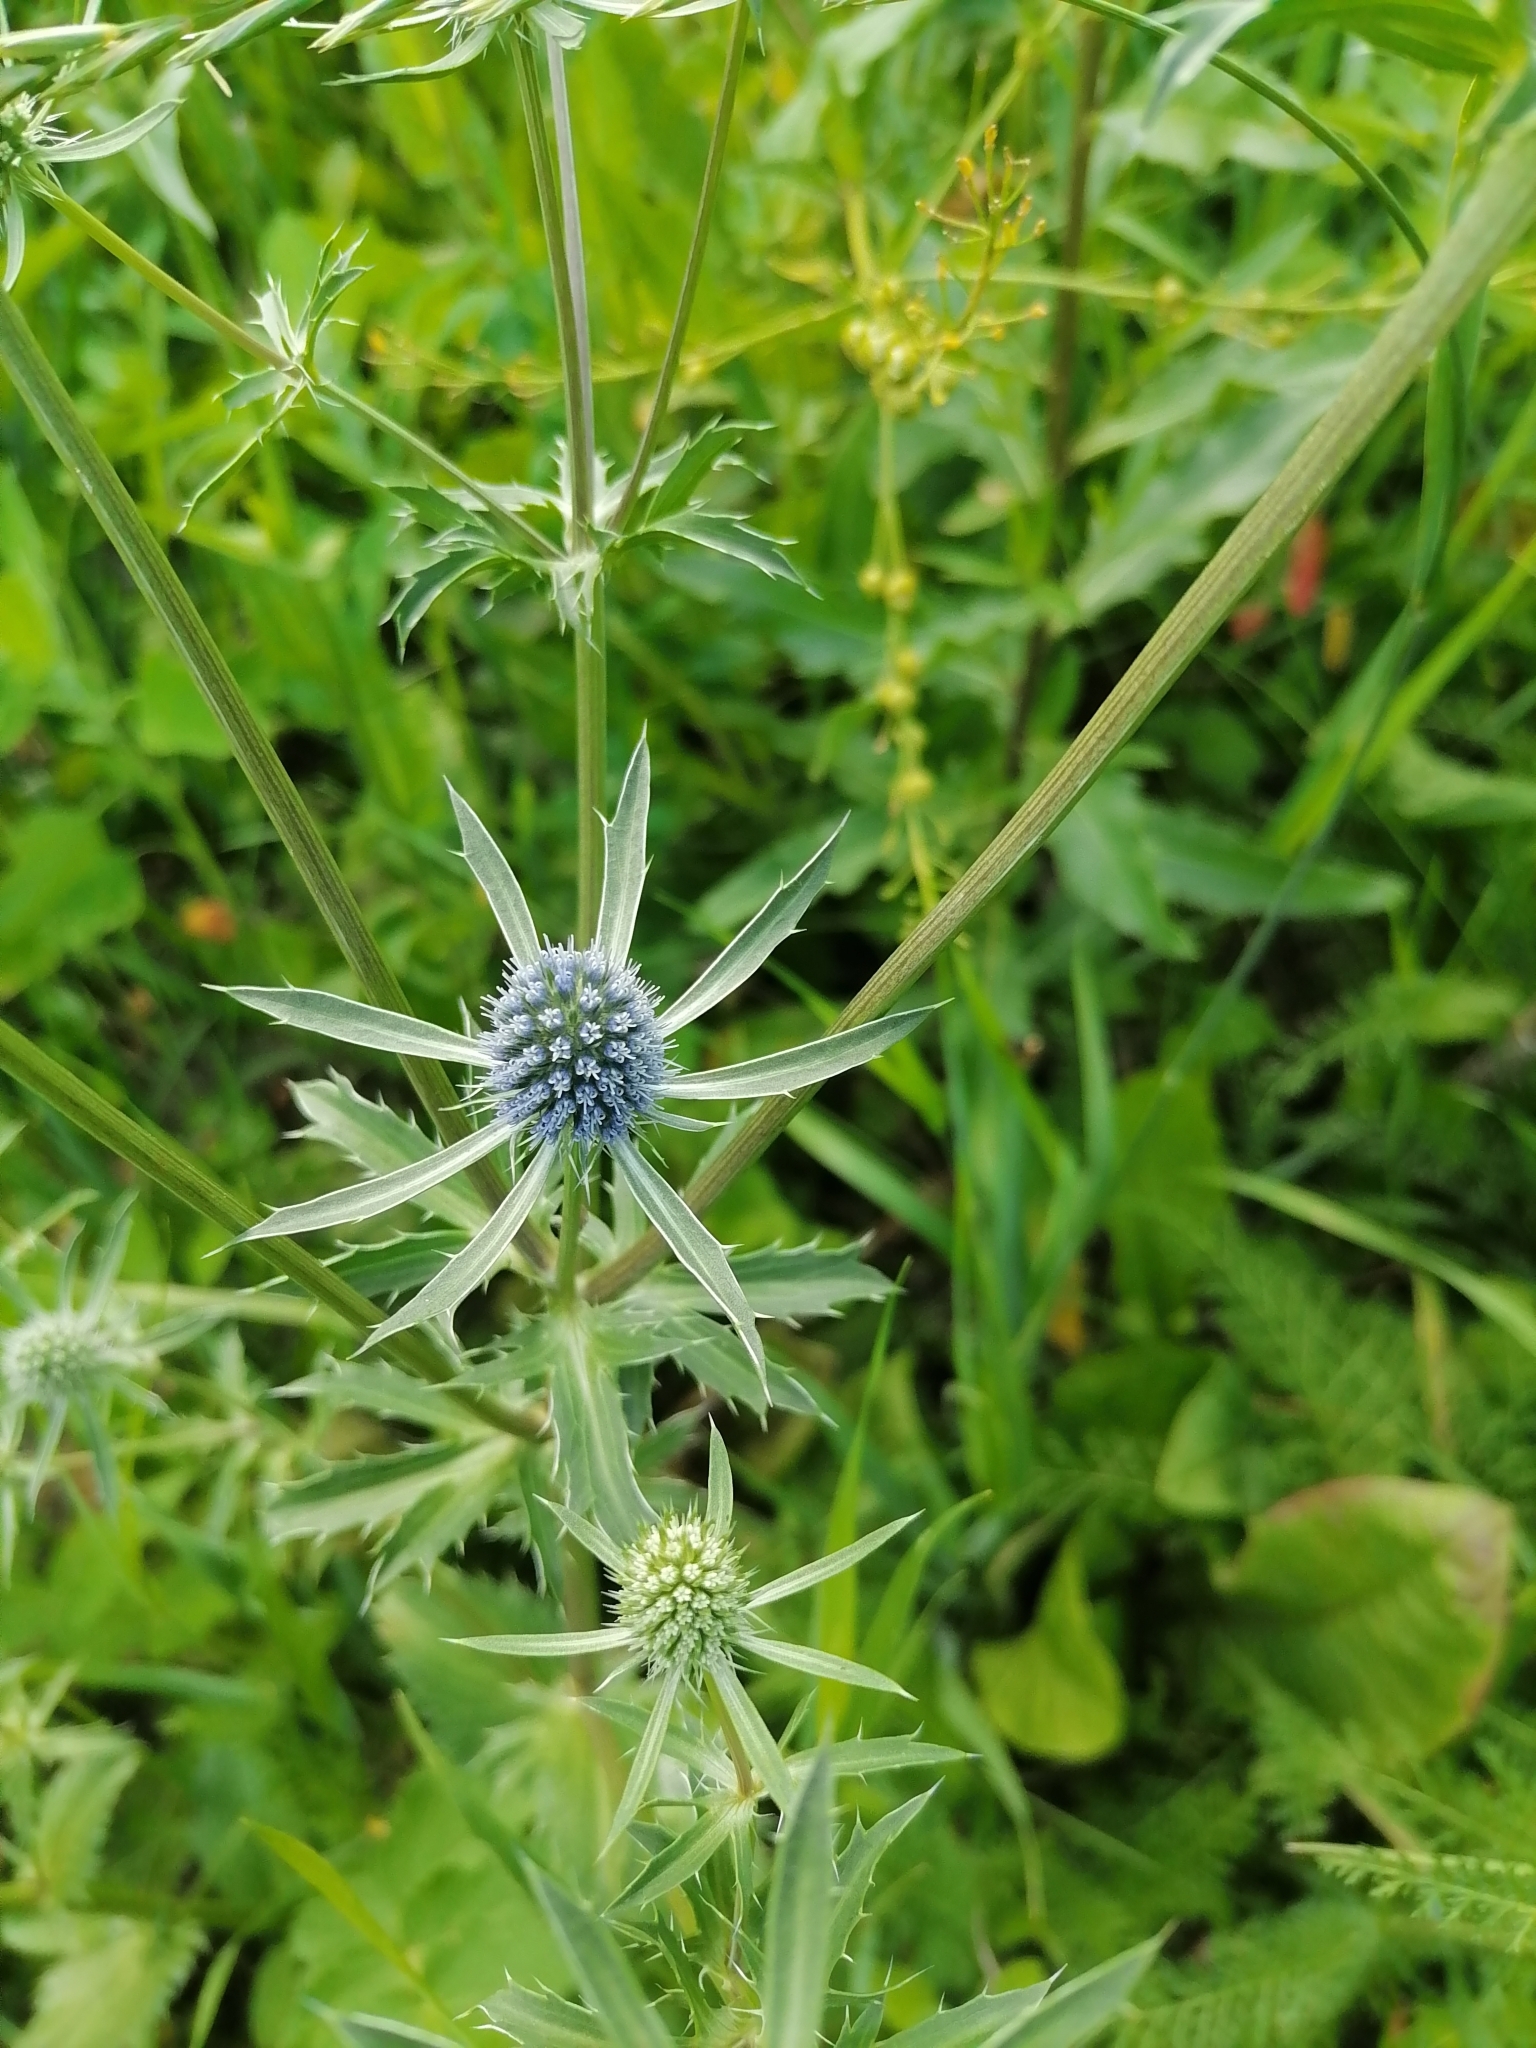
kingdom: Plantae
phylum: Tracheophyta
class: Magnoliopsida
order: Apiales
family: Apiaceae
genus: Eryngium
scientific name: Eryngium planum
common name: Blue eryngo
